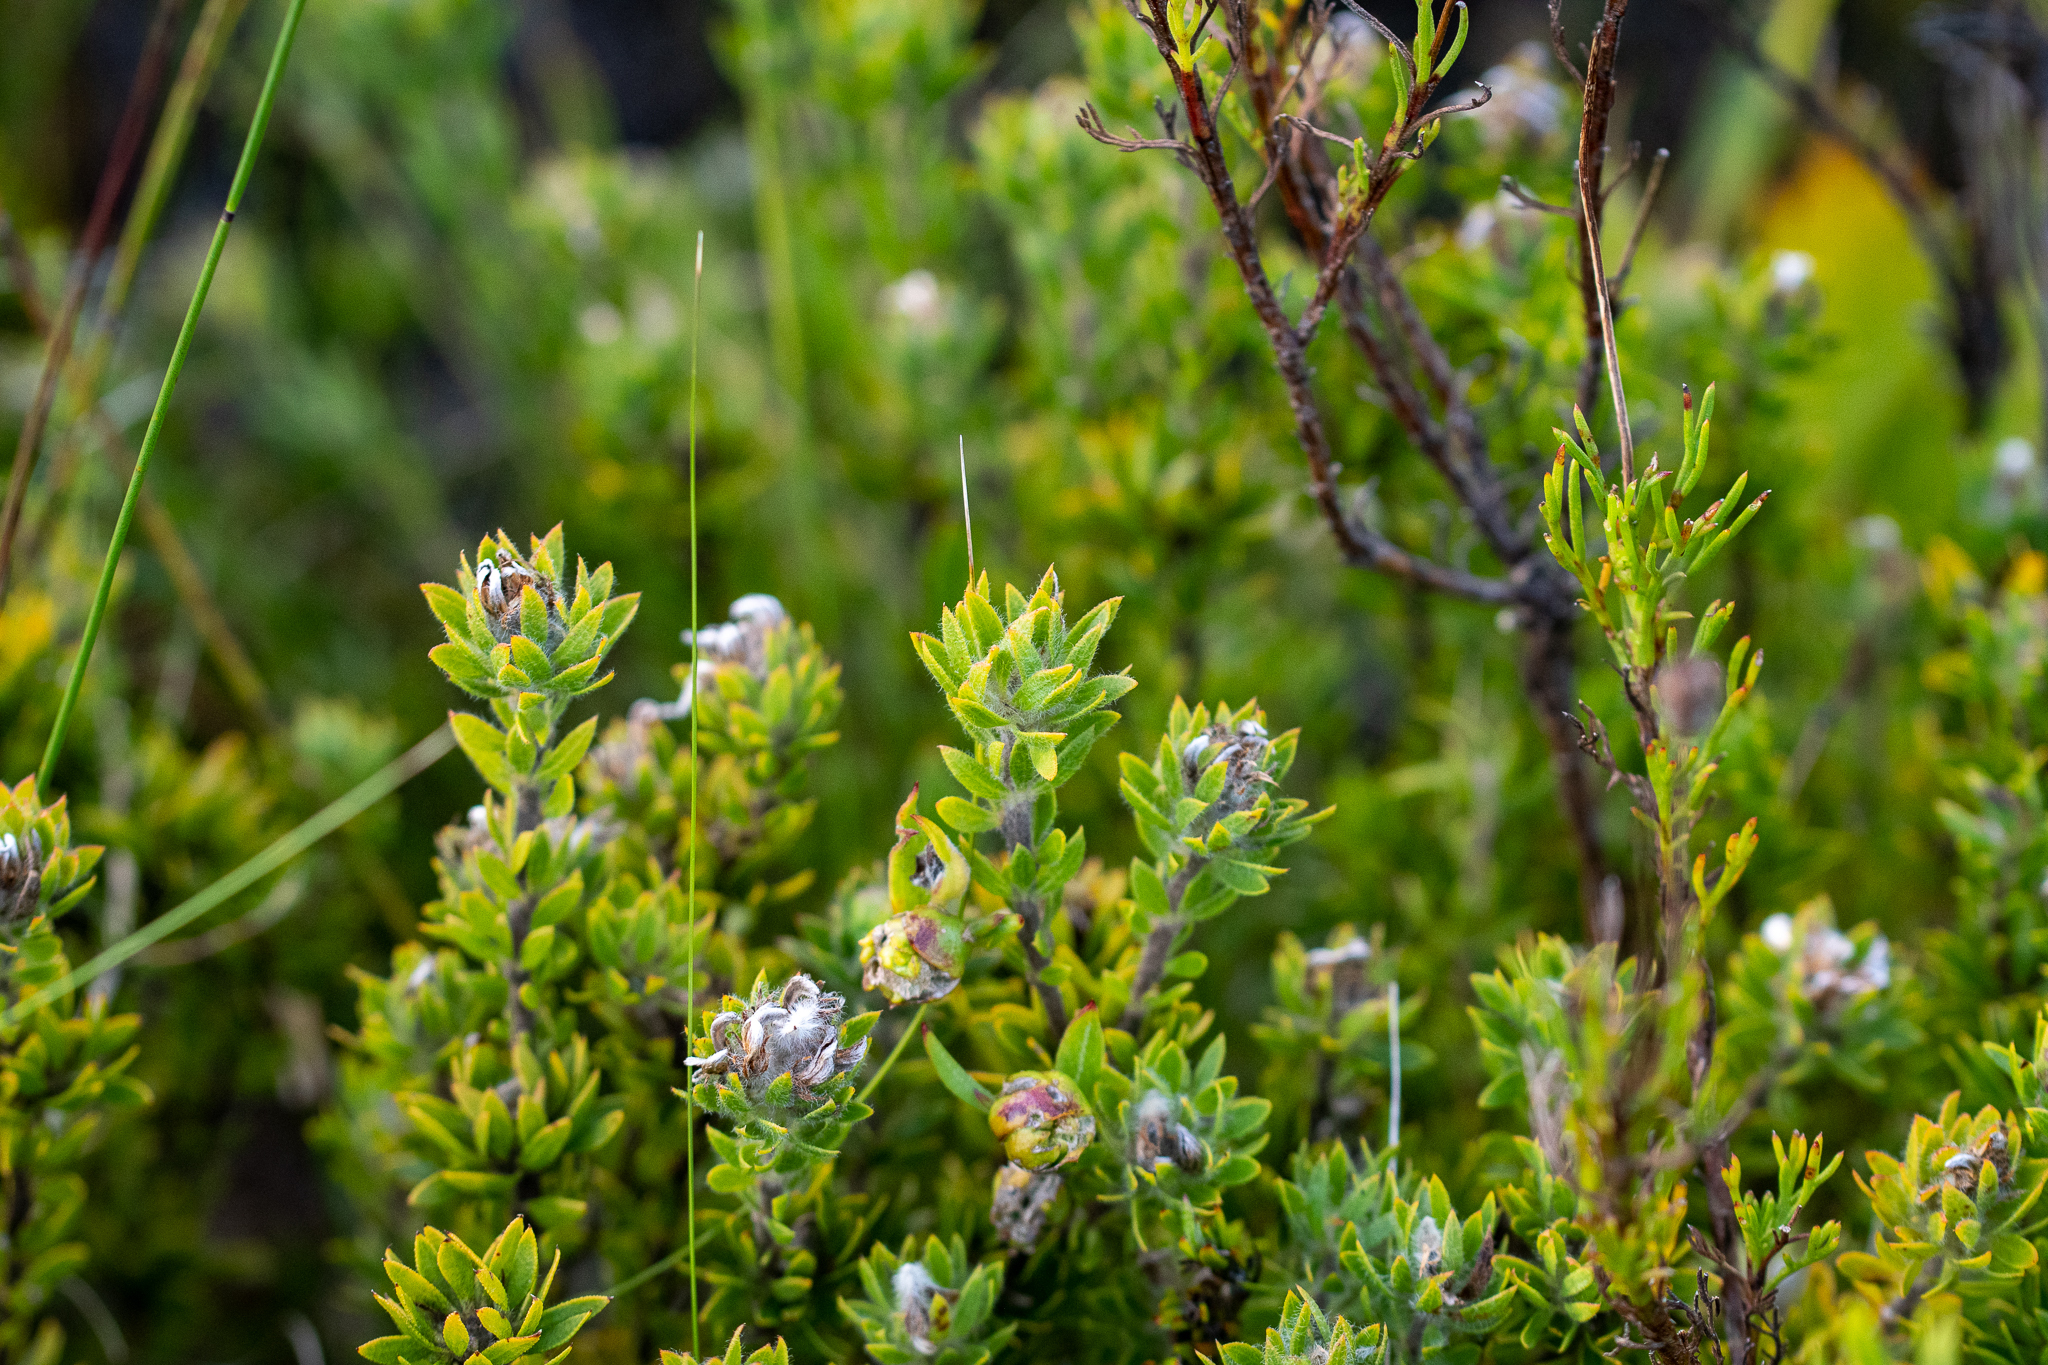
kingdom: Plantae
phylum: Tracheophyta
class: Magnoliopsida
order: Fabales
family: Fabaceae
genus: Aspalathus
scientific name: Aspalathus aspalathoides
